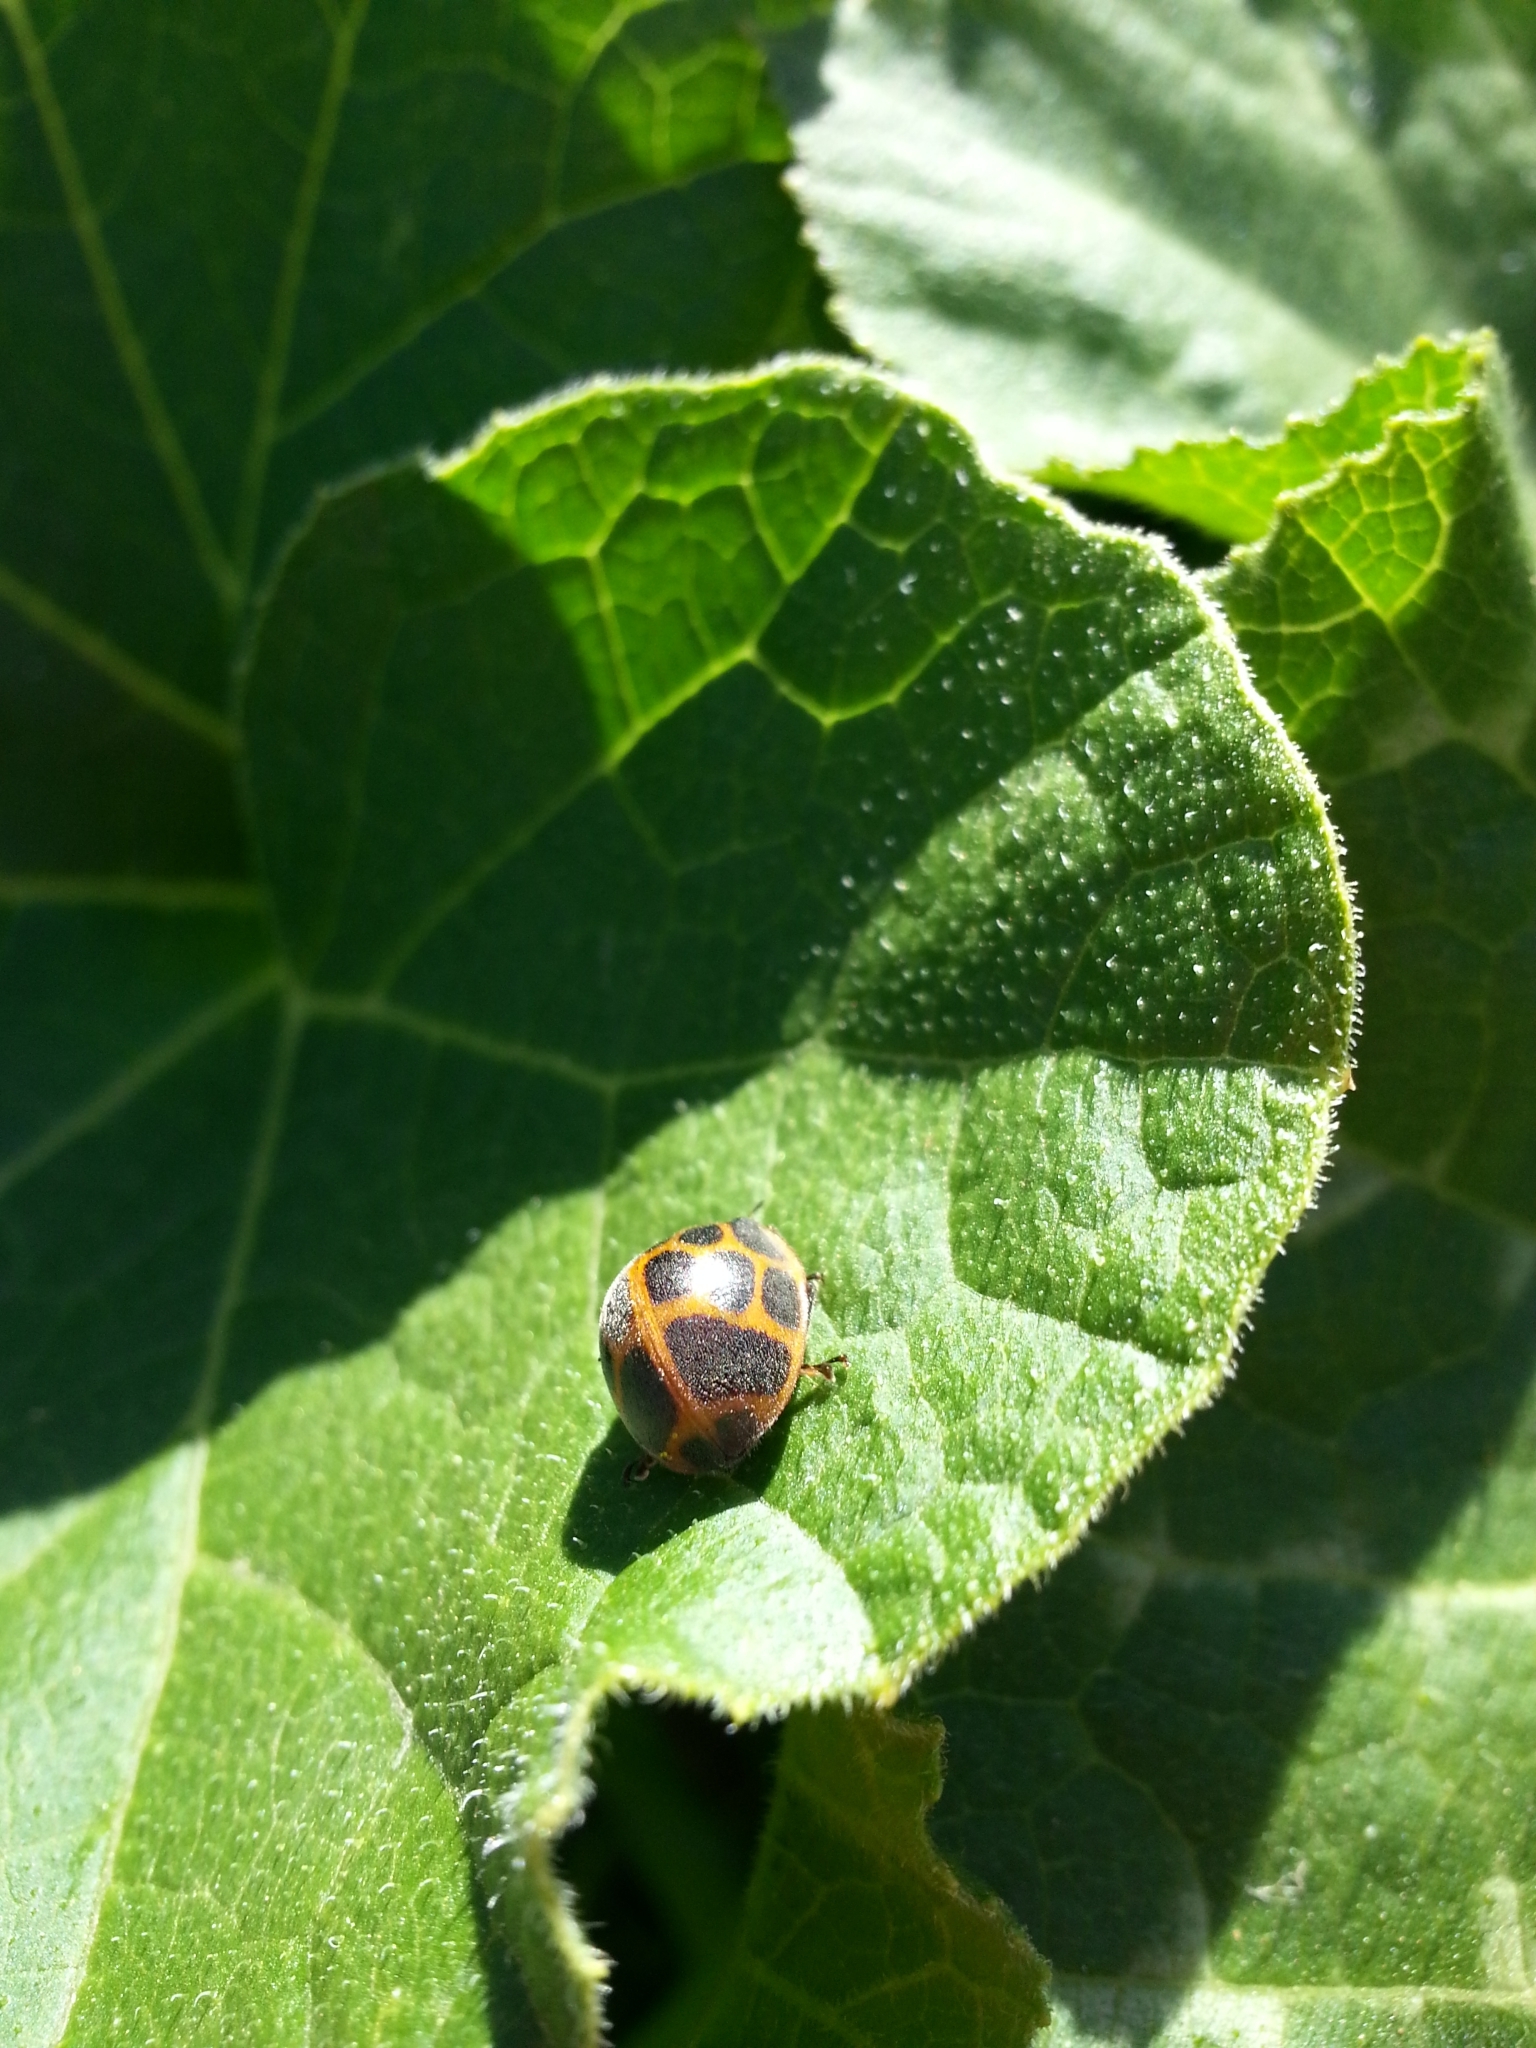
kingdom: Animalia
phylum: Arthropoda
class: Insecta
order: Coleoptera
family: Coccinellidae
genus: Epilachna
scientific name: Epilachna
